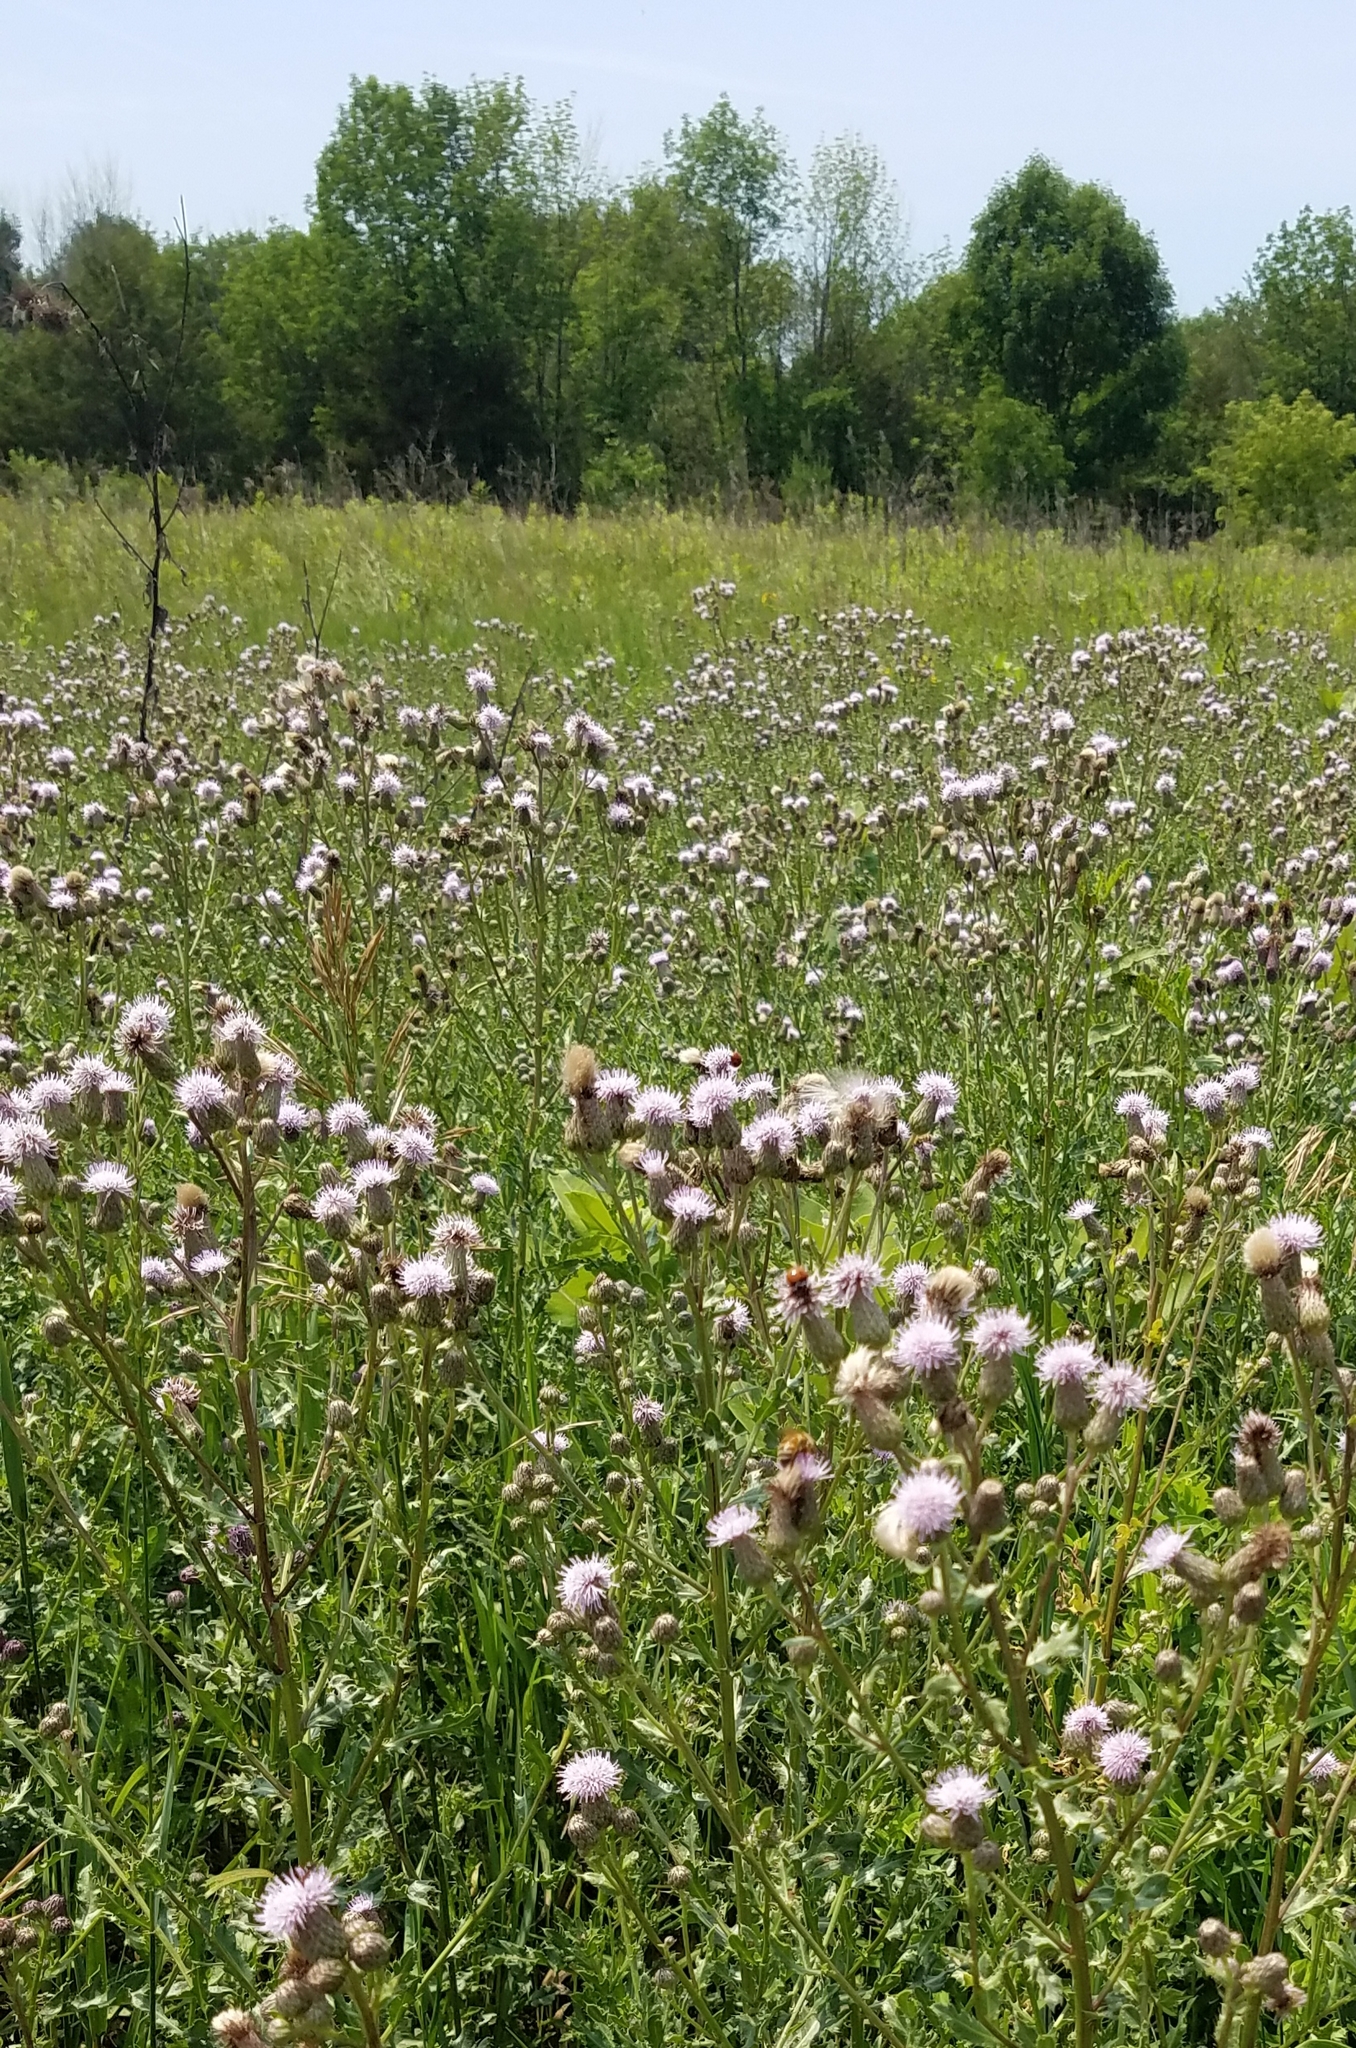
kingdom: Plantae
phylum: Tracheophyta
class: Magnoliopsida
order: Asterales
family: Asteraceae
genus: Cirsium
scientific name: Cirsium arvense
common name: Creeping thistle
